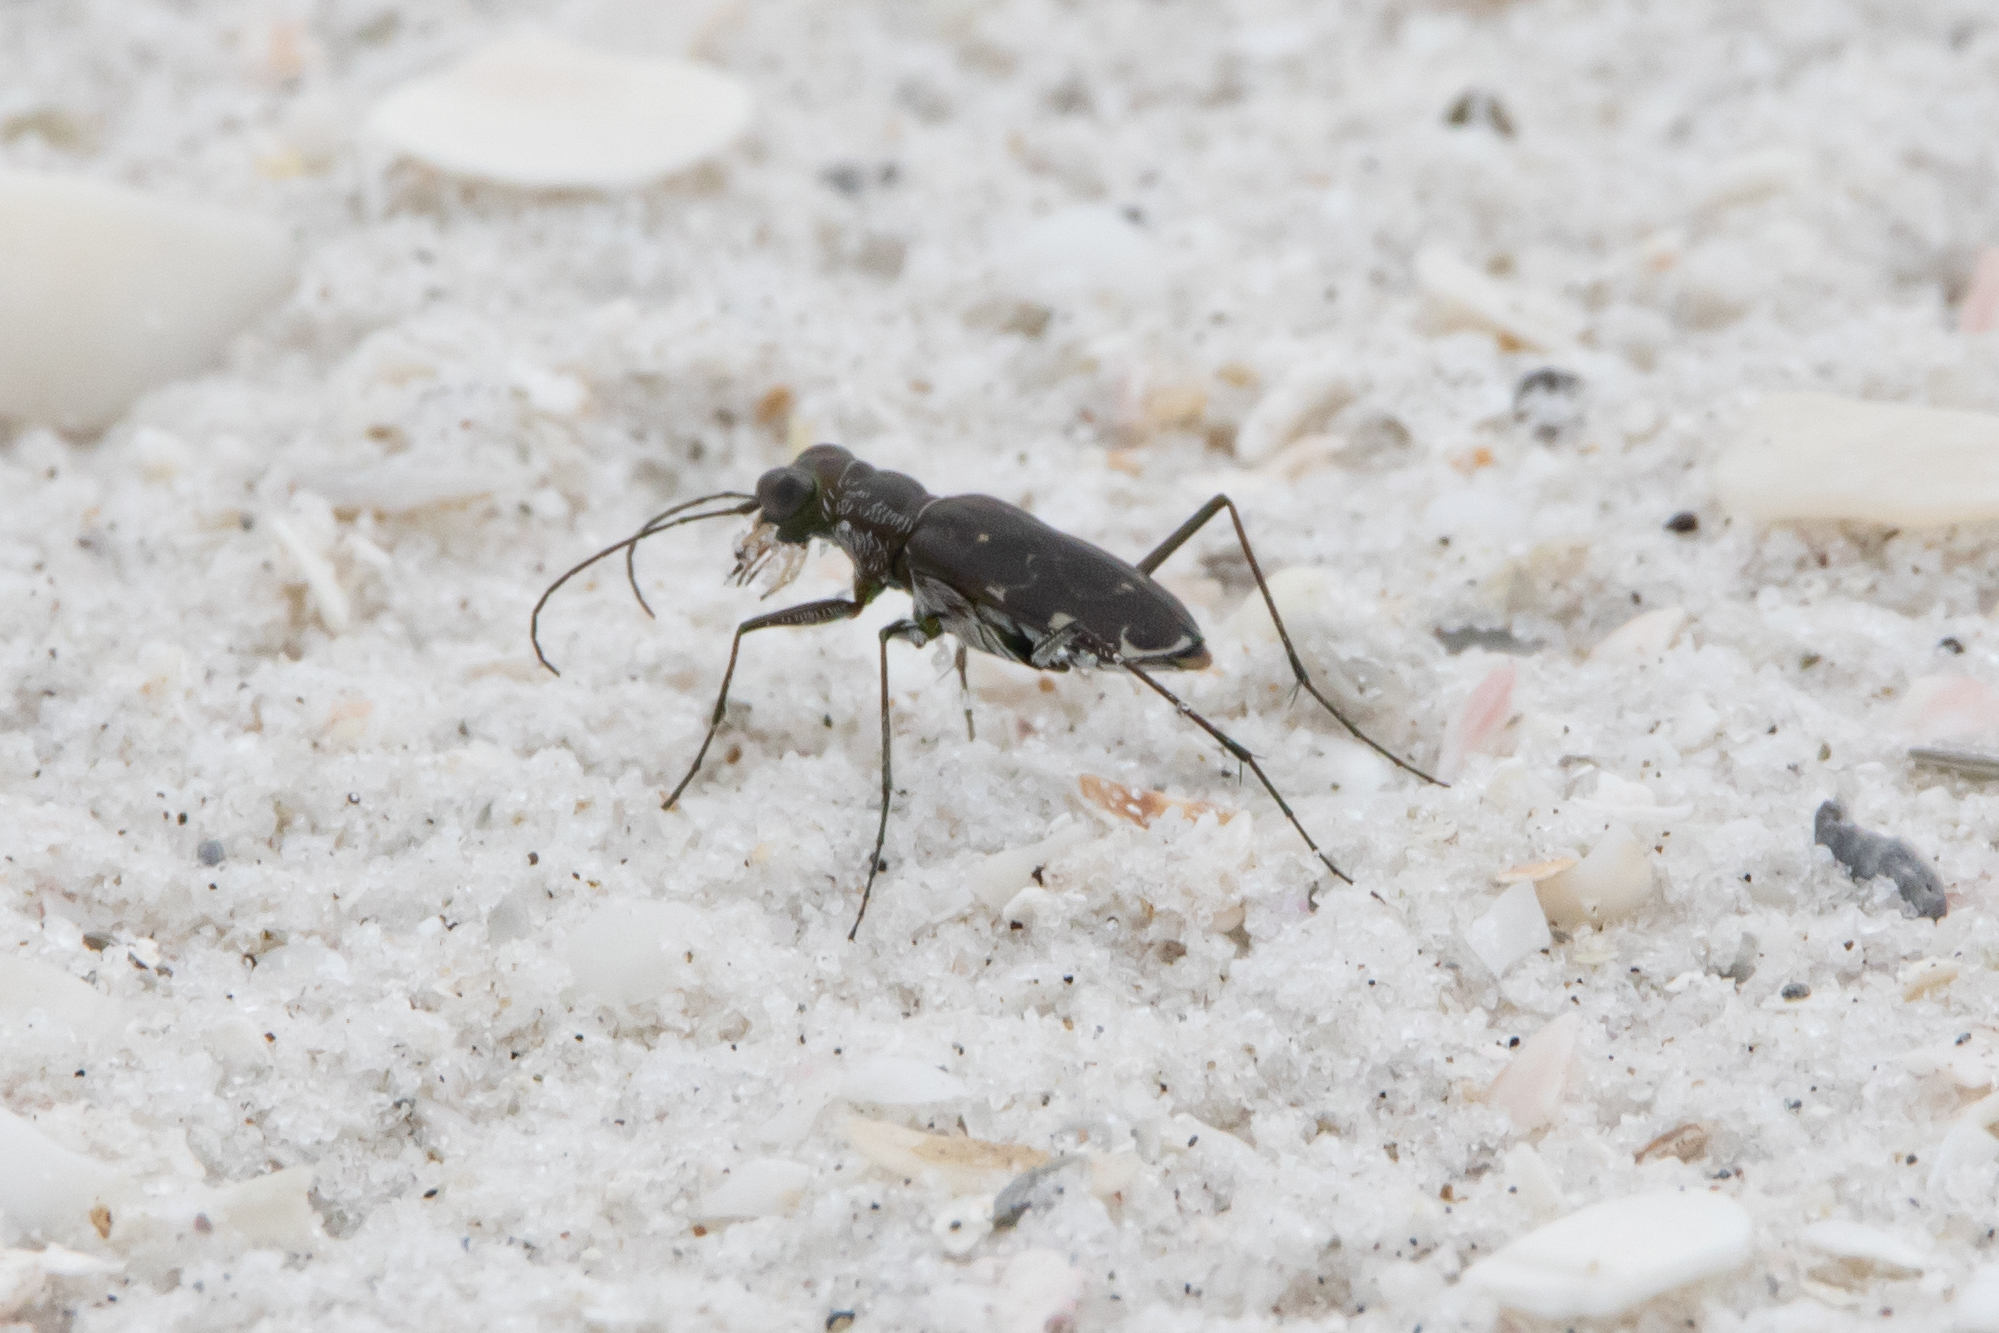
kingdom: Animalia
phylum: Arthropoda
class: Insecta
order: Coleoptera
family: Carabidae
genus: Cicindela
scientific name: Cicindela trifasciata
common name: Mudflat tiger beetle
